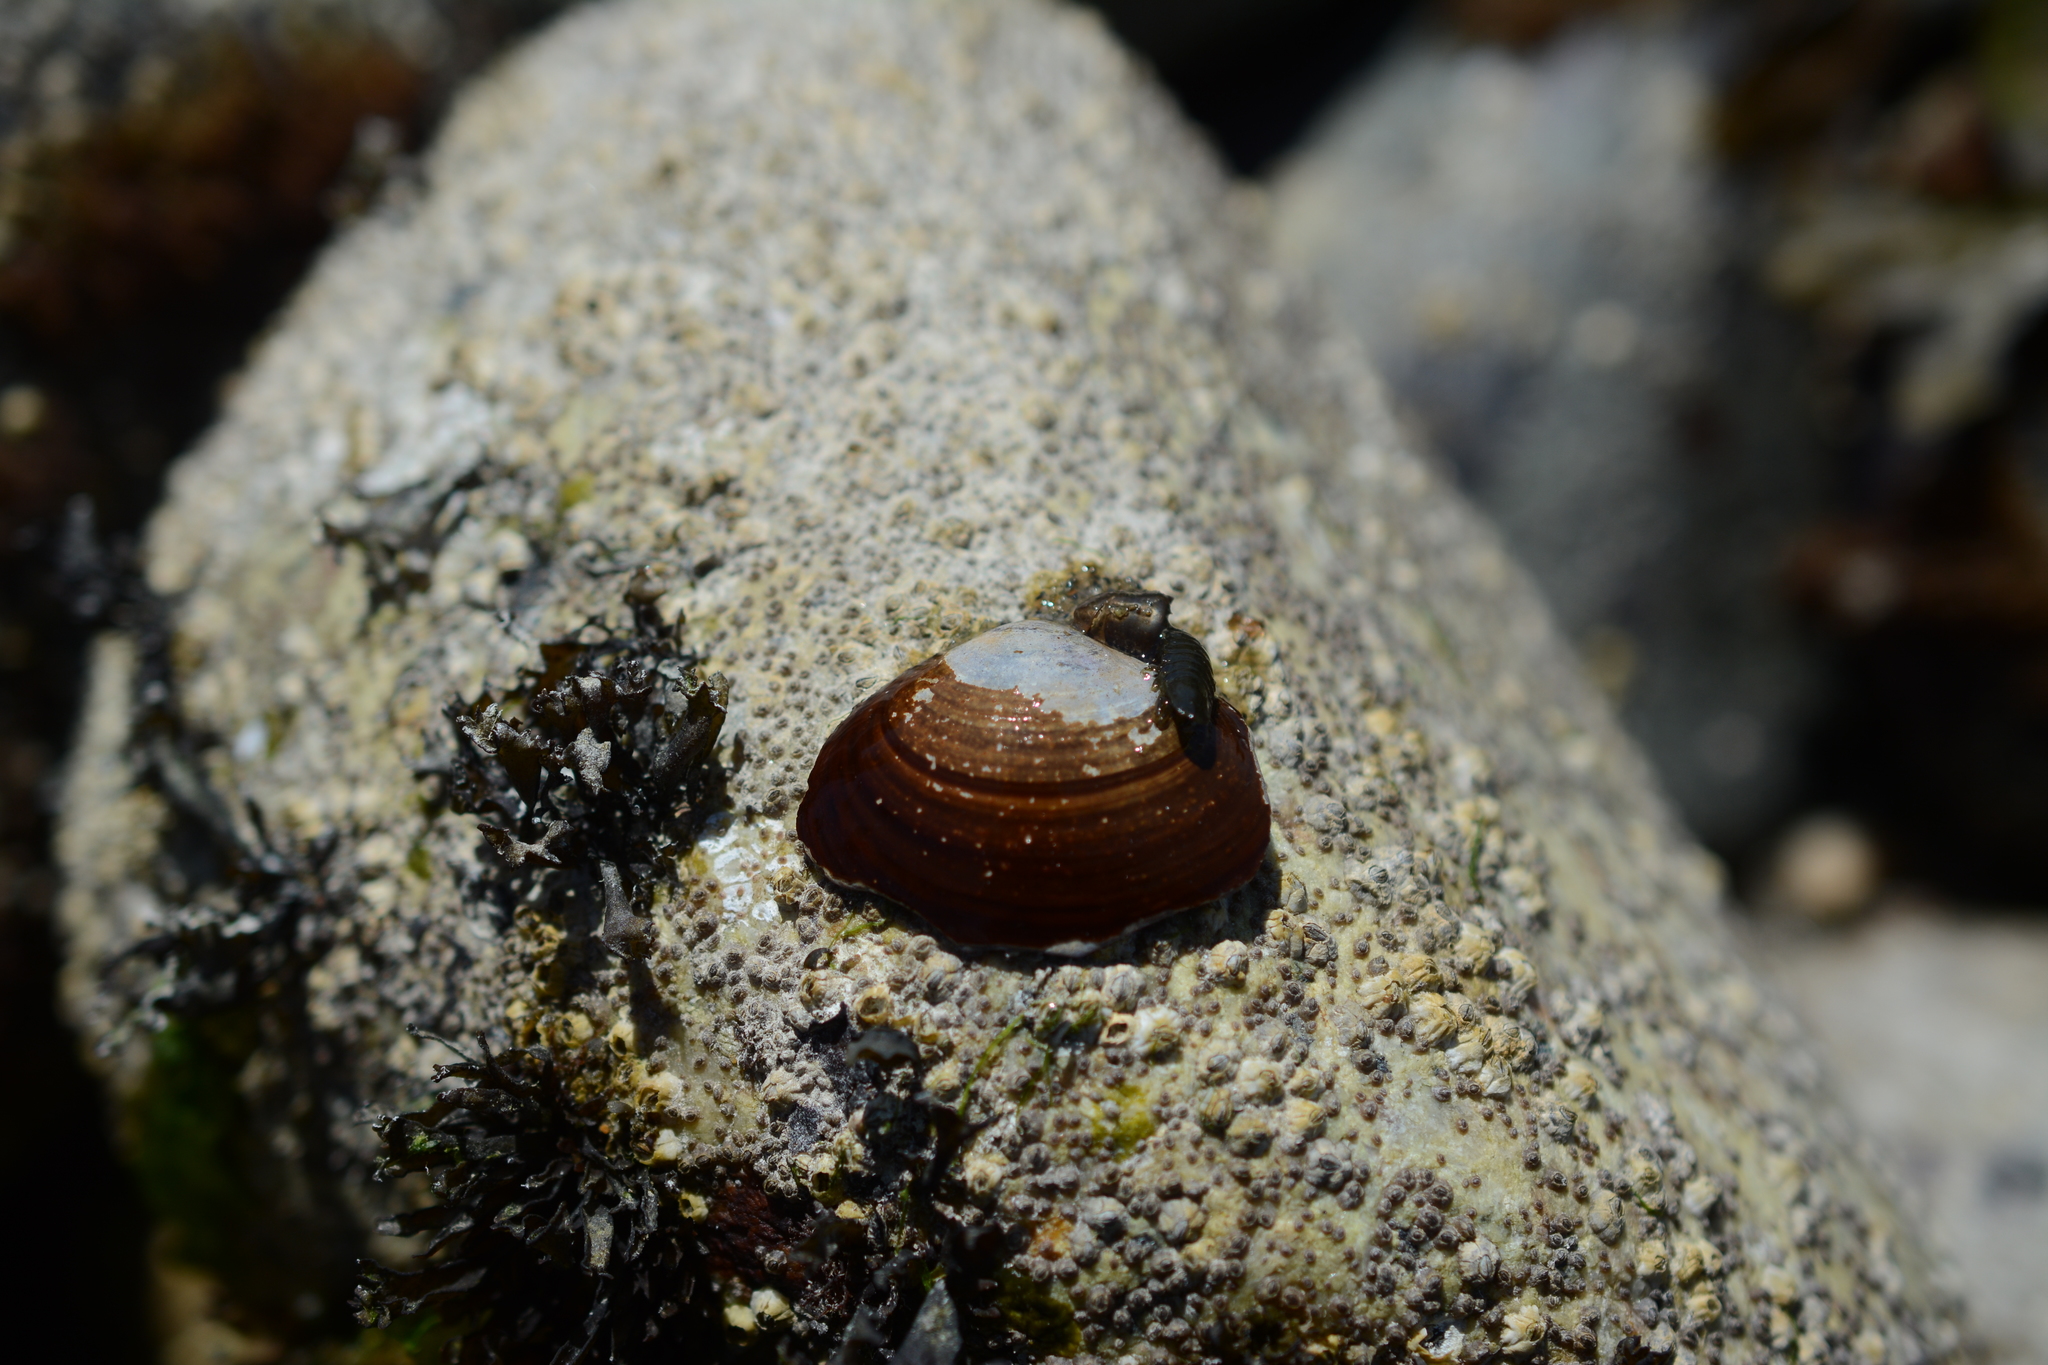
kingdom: Animalia
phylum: Mollusca
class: Bivalvia
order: Cardiida
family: Psammobiidae
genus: Nuttallia
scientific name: Nuttallia obscurata
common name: Purple mahogany-clam
